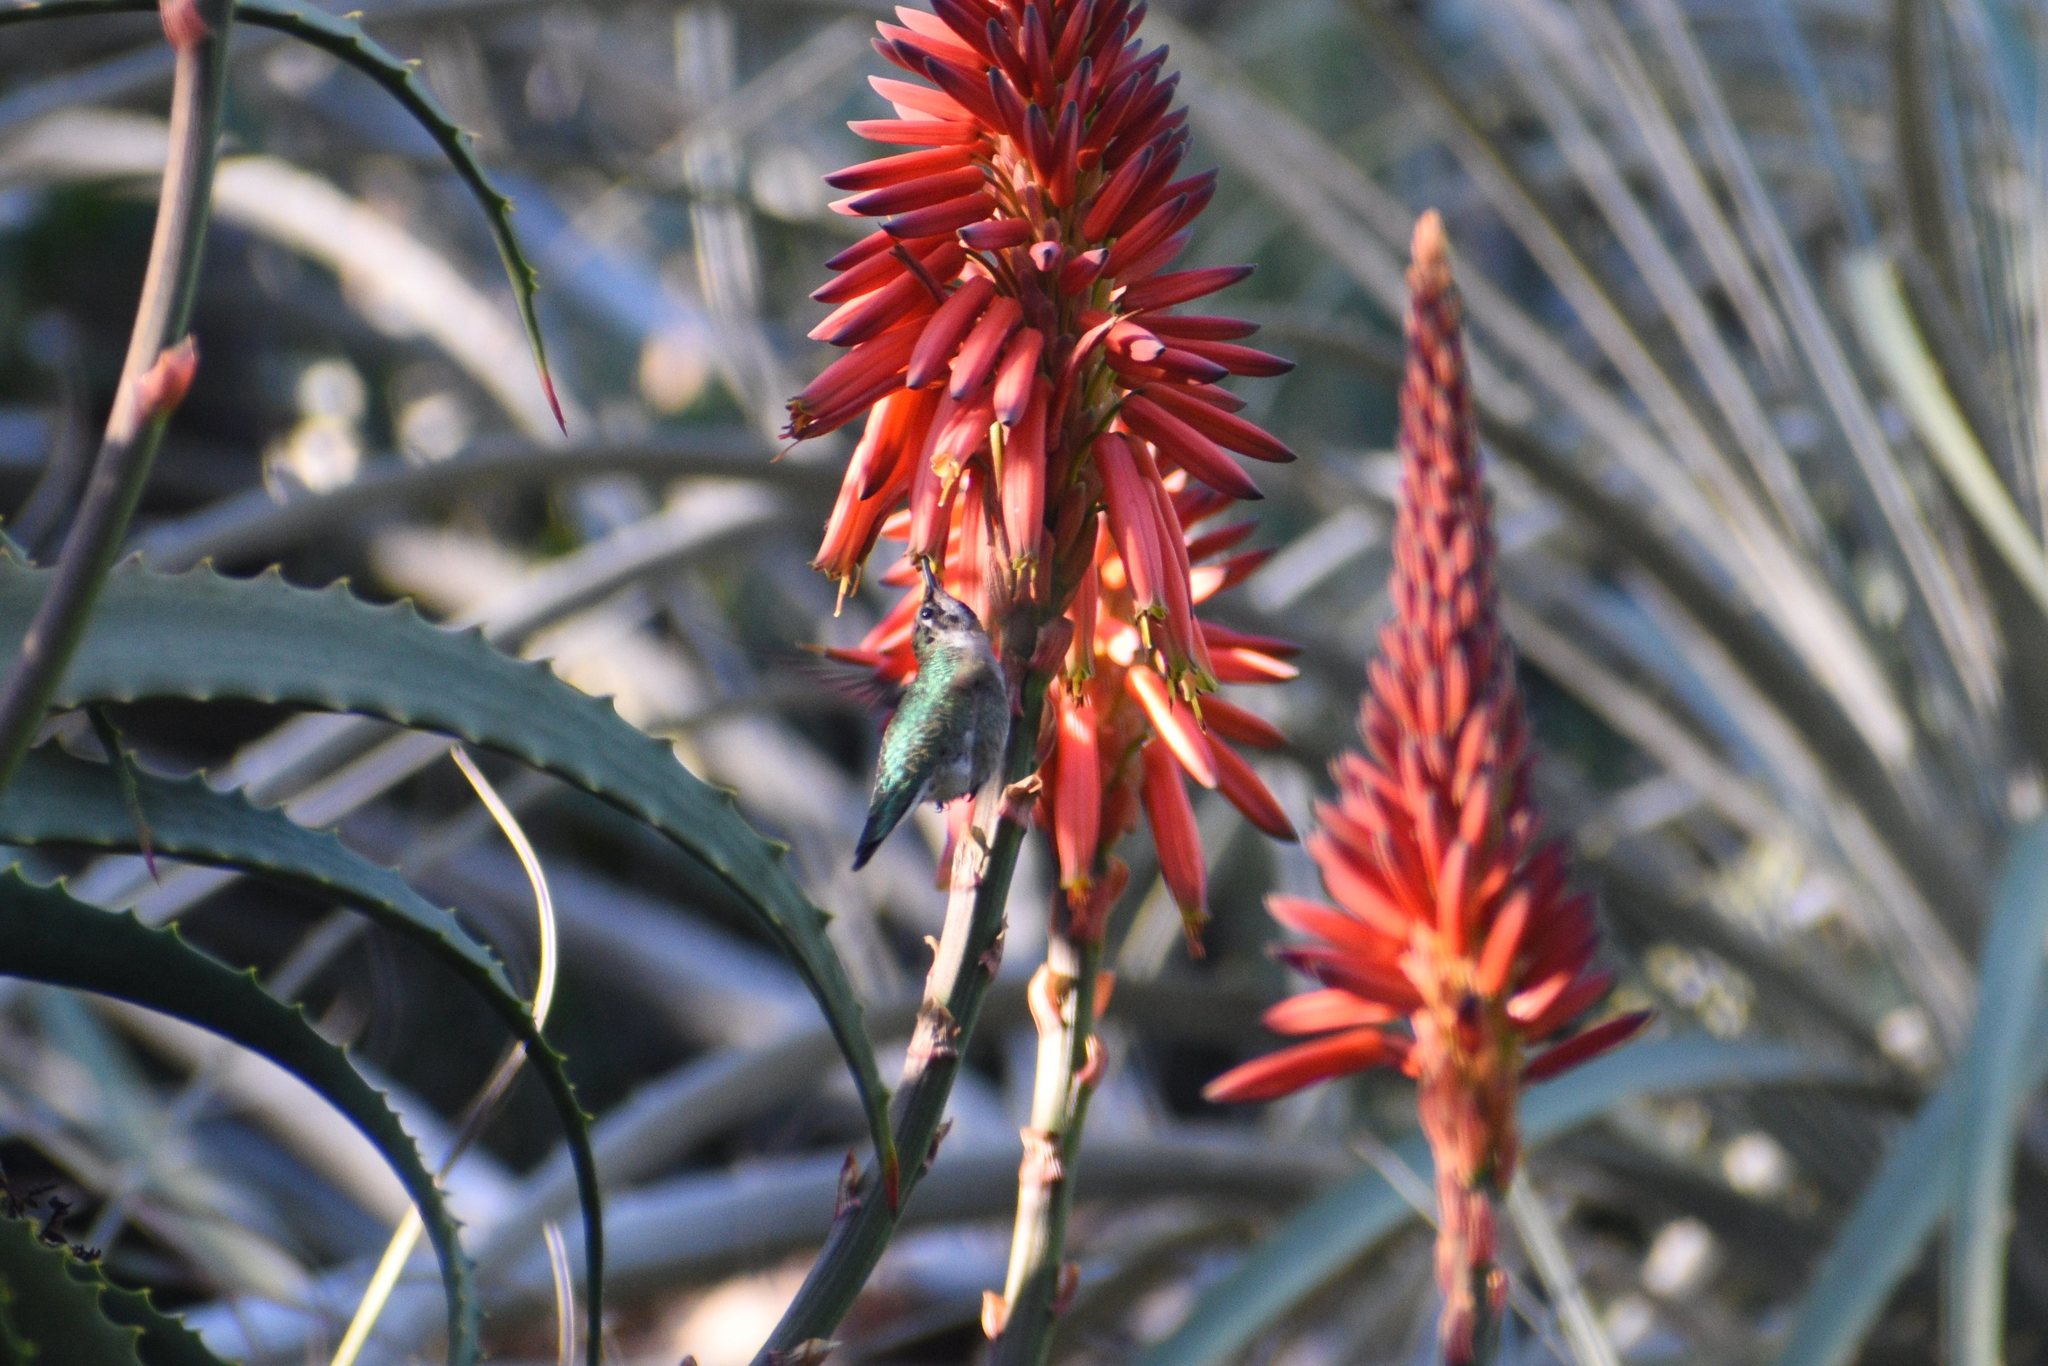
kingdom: Animalia
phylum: Chordata
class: Aves
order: Apodiformes
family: Trochilidae
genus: Calypte
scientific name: Calypte anna
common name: Anna's hummingbird
